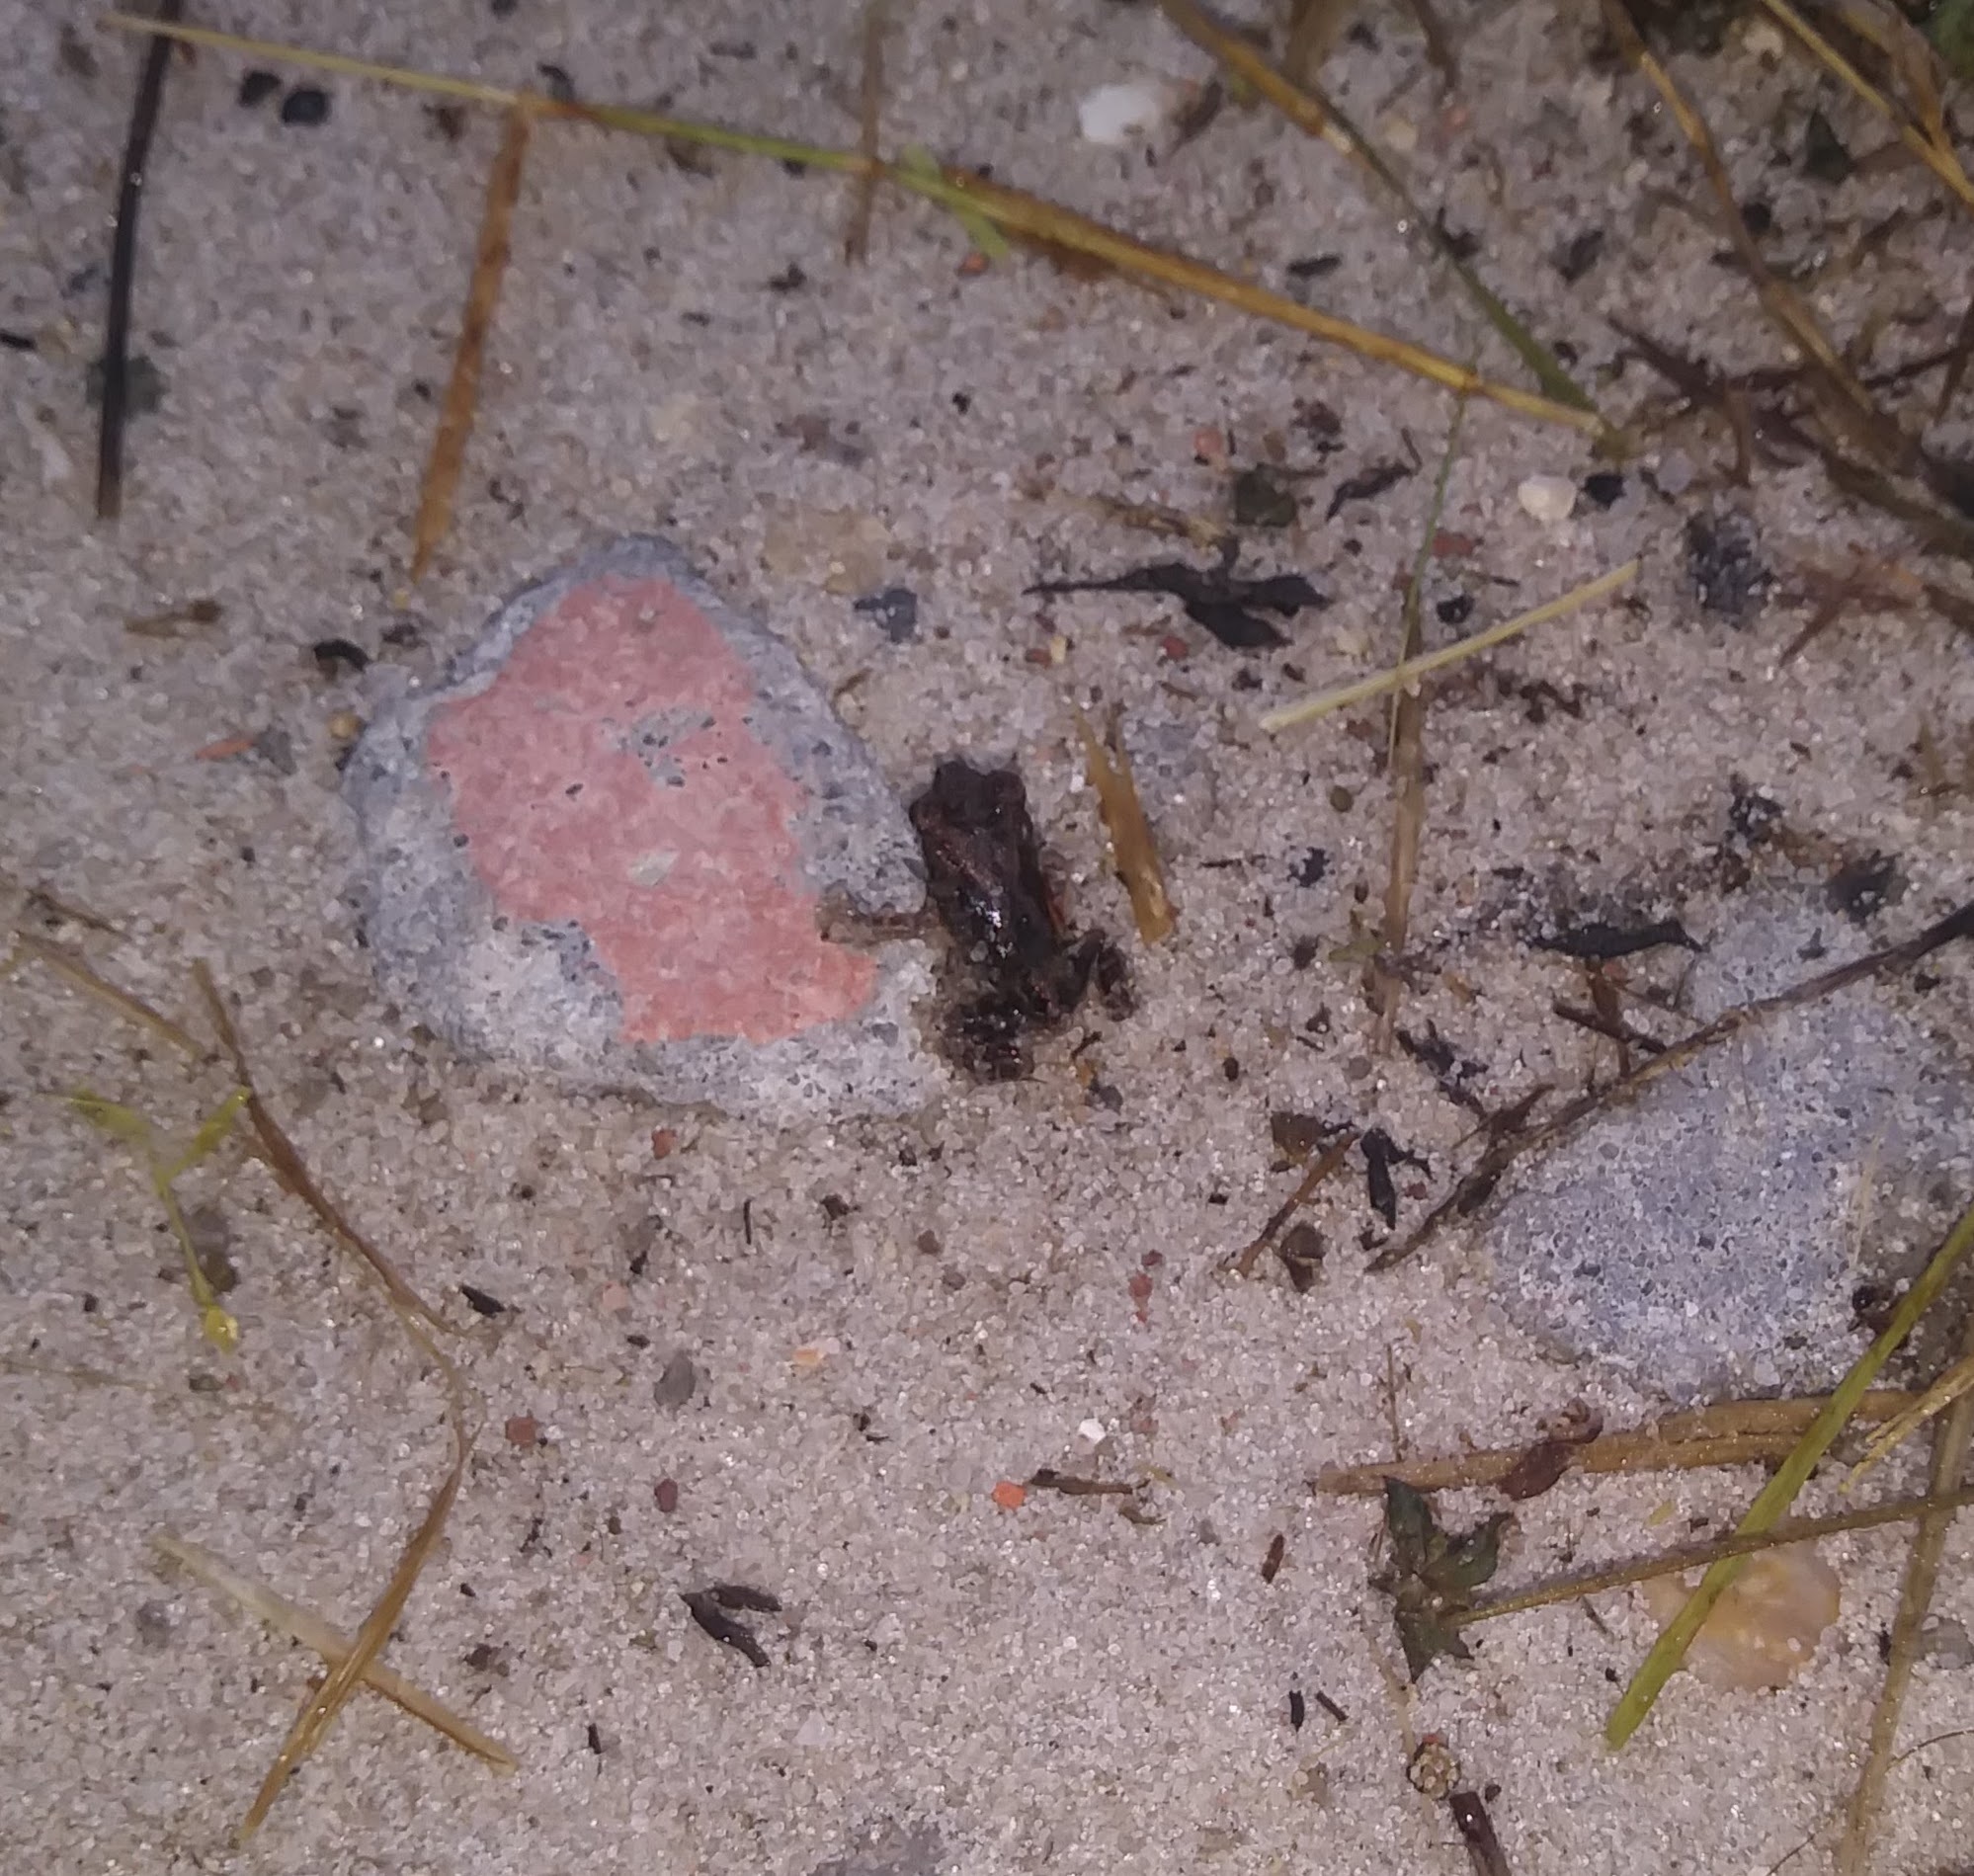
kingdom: Animalia
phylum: Chordata
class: Amphibia
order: Anura
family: Scaphiopodidae
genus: Scaphiopus
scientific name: Scaphiopus holbrookii
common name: Eastern spadefoot toad
